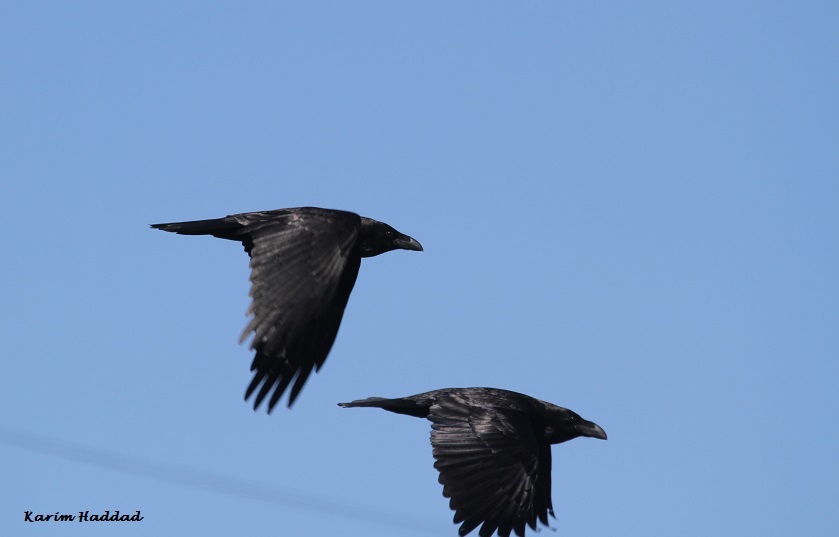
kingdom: Animalia
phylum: Chordata
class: Aves
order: Passeriformes
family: Corvidae
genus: Corvus
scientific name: Corvus corax
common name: Common raven
